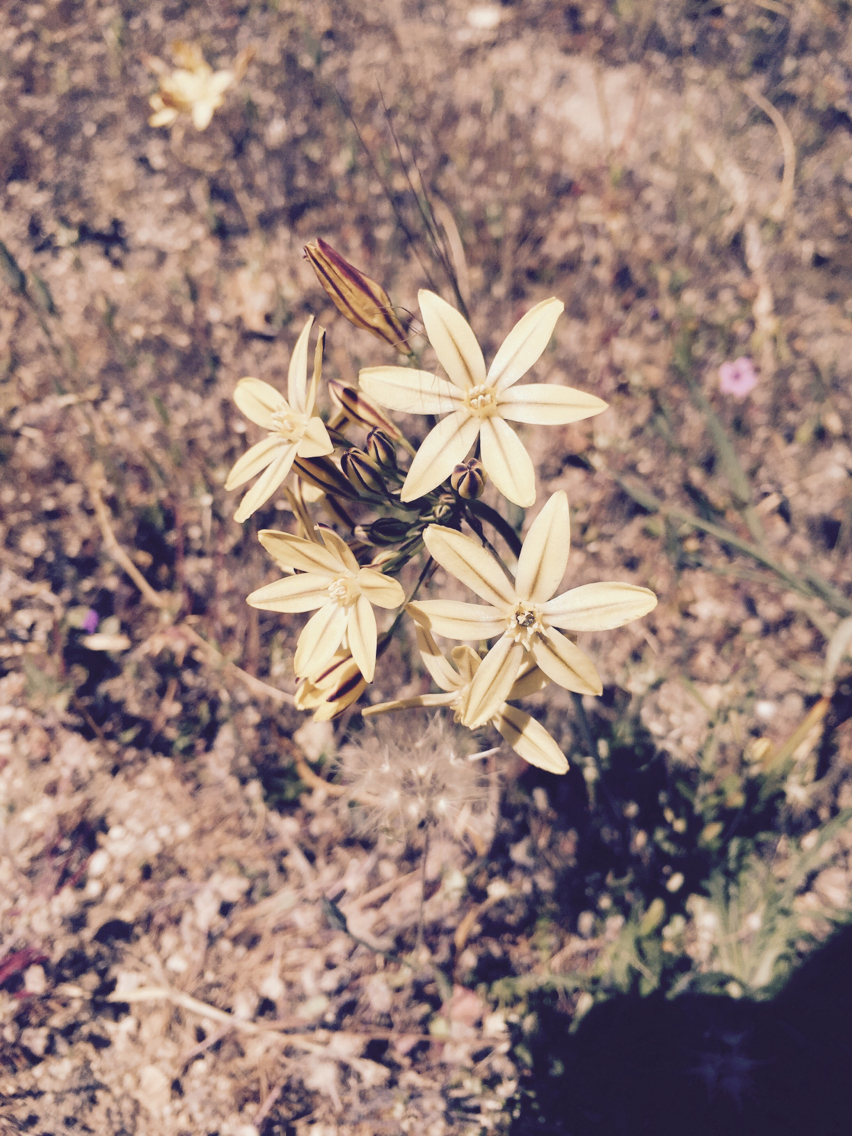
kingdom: Plantae
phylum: Tracheophyta
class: Liliopsida
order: Asparagales
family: Asparagaceae
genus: Triteleia
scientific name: Triteleia ixioides
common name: Yellow-brodiaea
